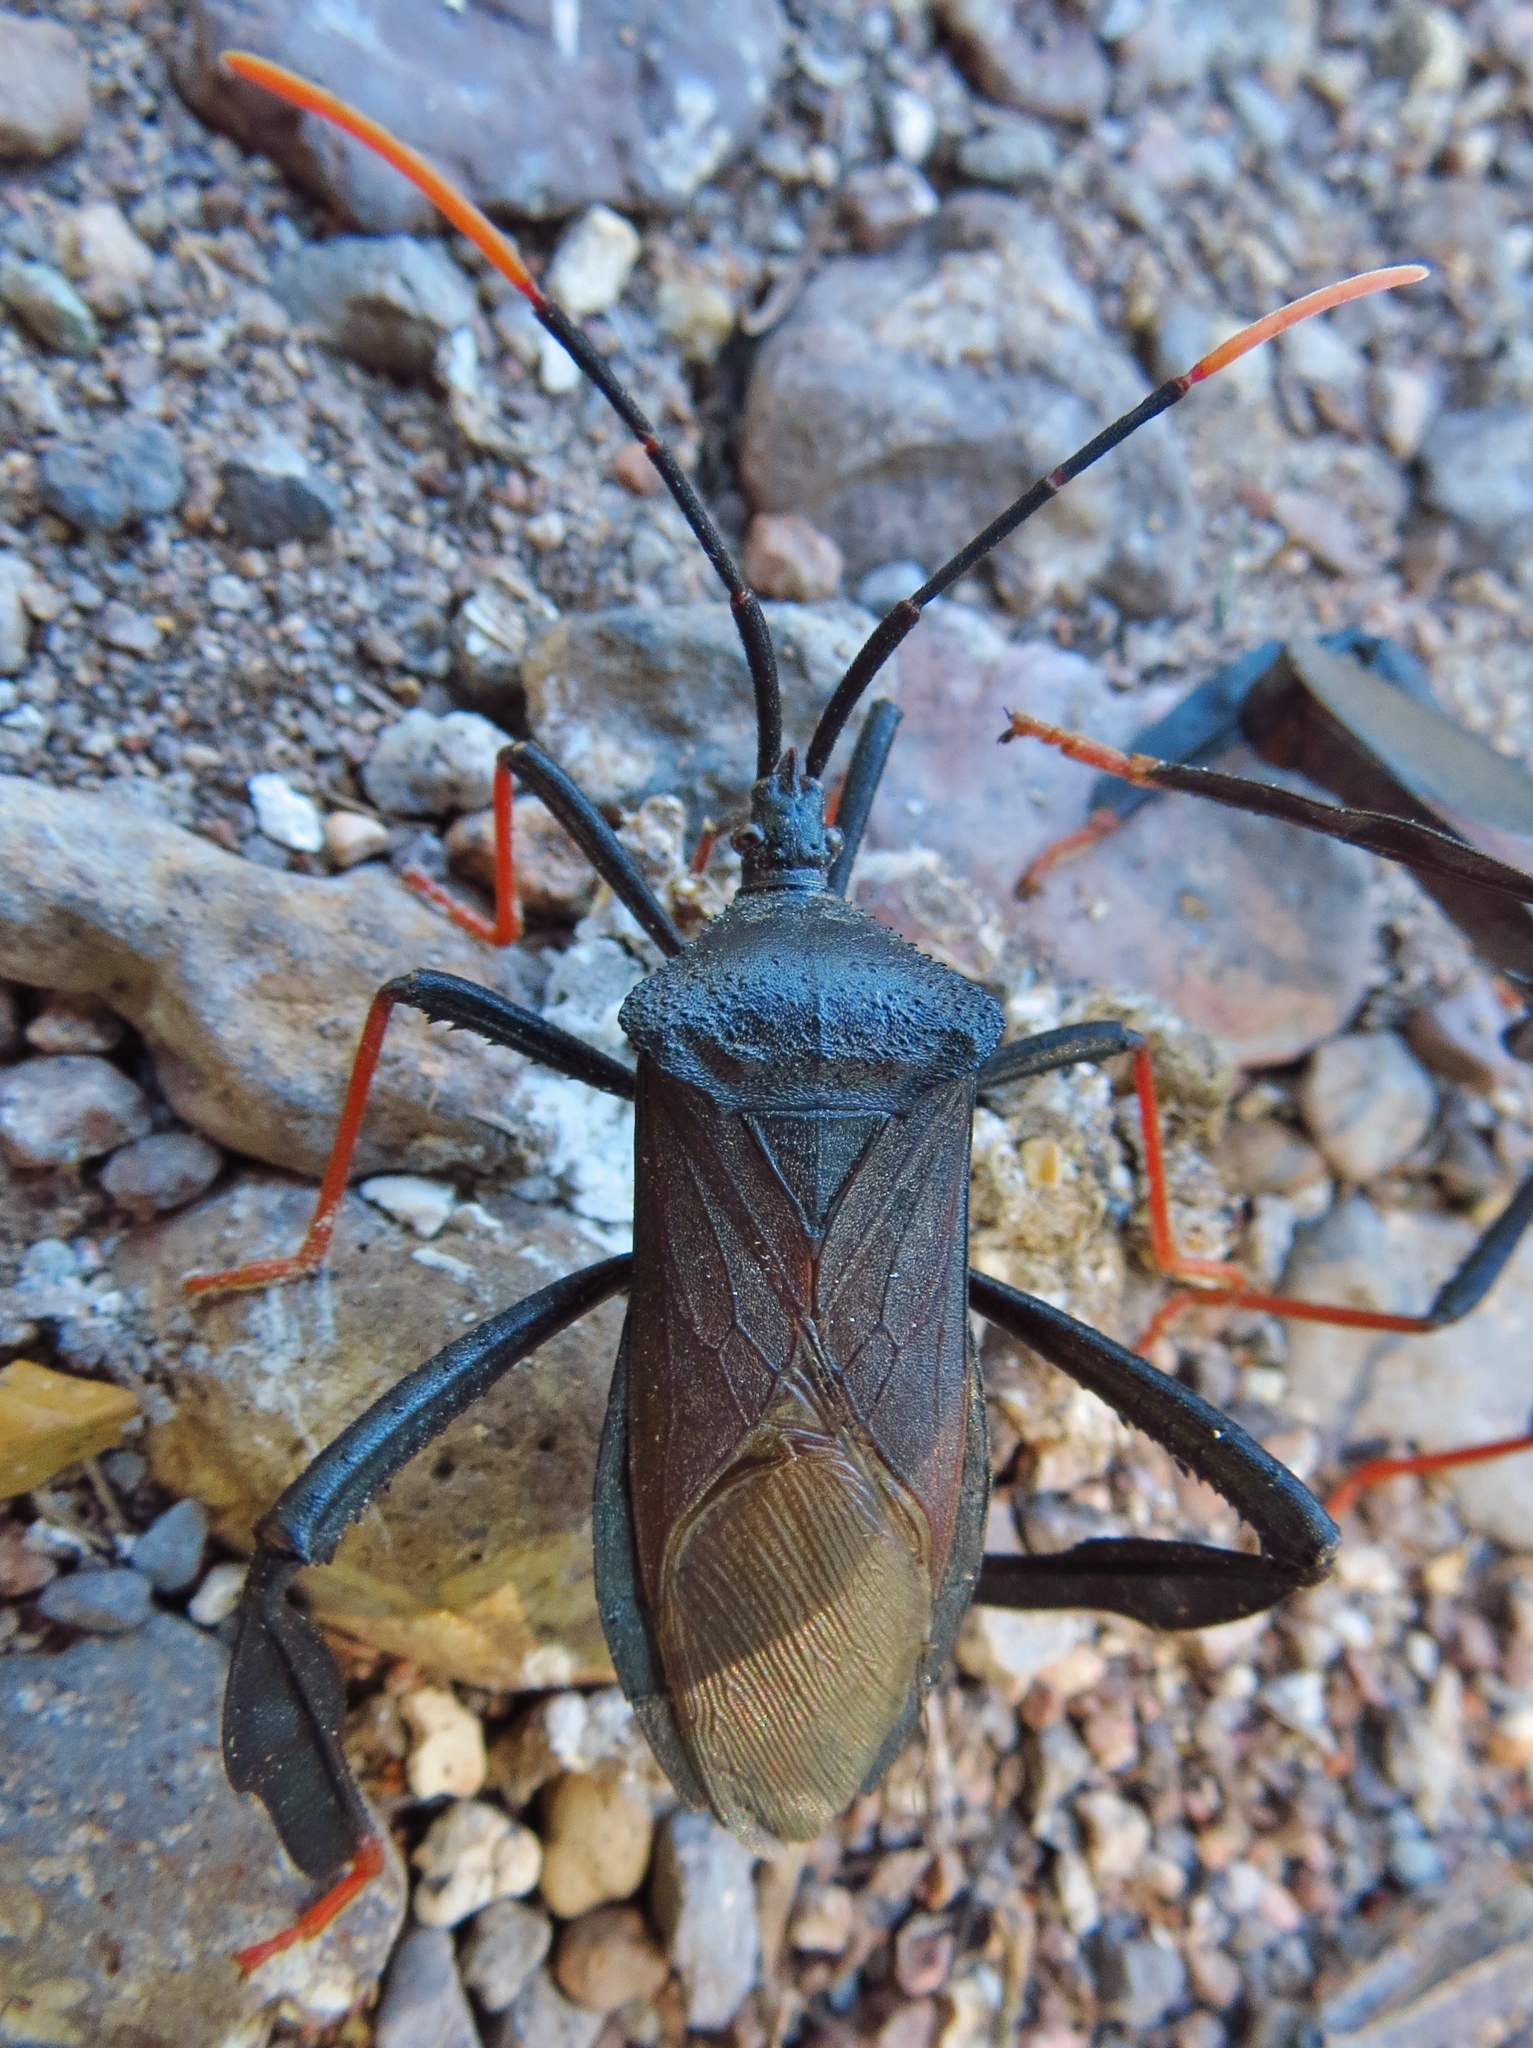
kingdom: Animalia
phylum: Arthropoda
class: Insecta
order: Hemiptera
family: Coreidae
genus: Acanthocephala
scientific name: Acanthocephala thomasi
